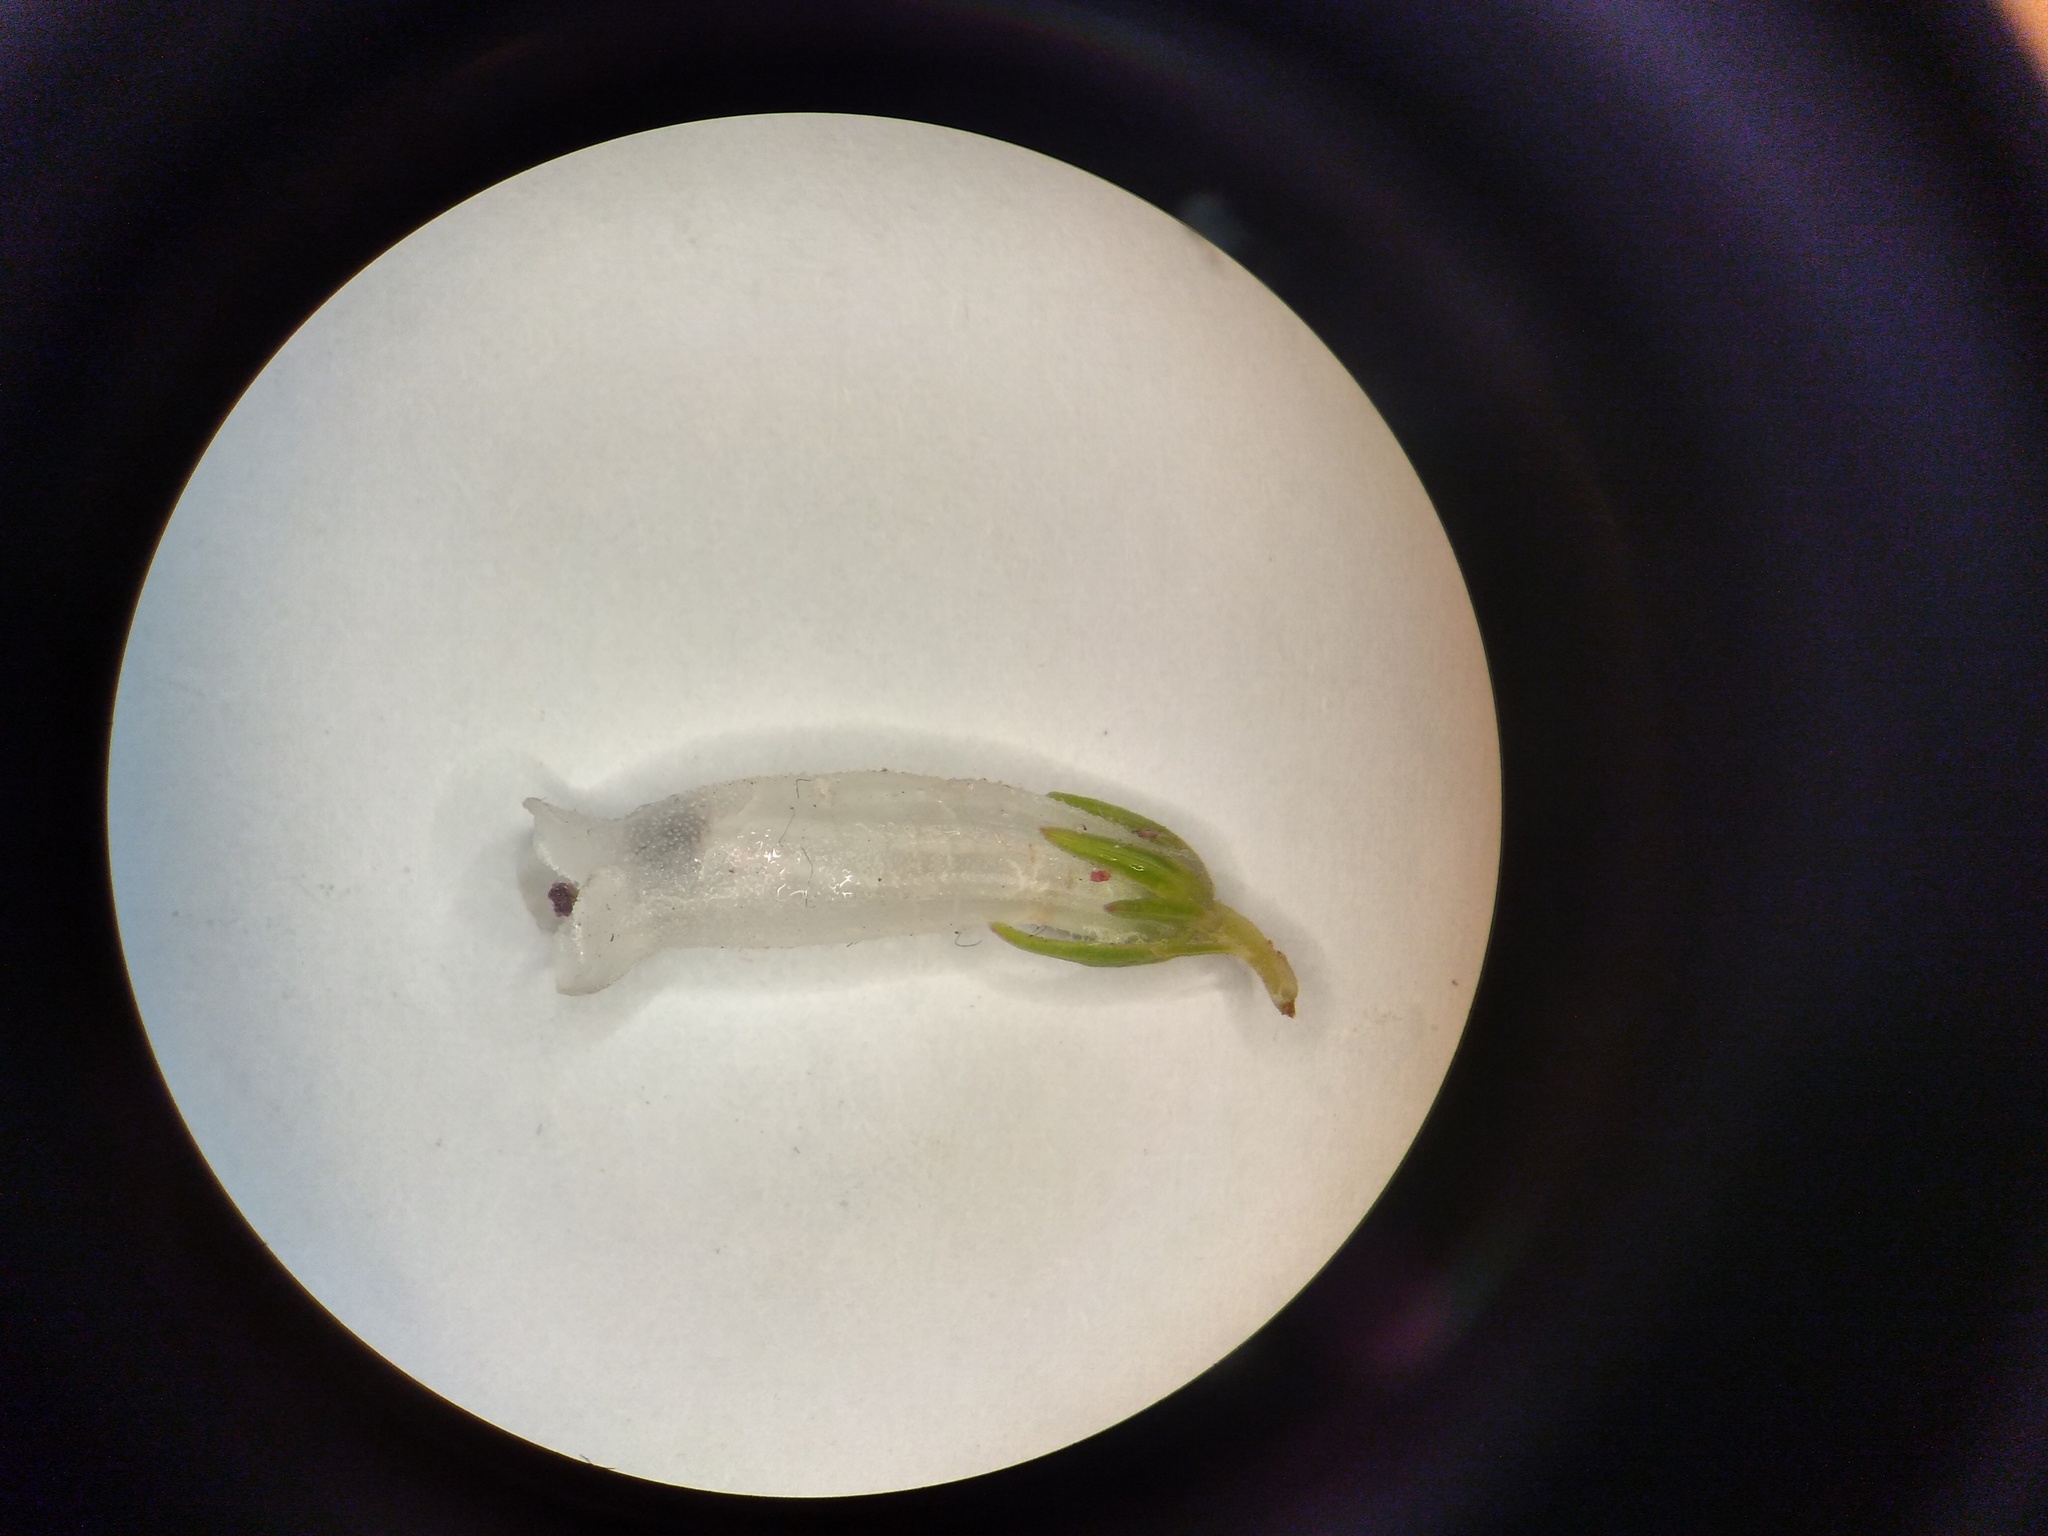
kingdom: Plantae
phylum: Tracheophyta
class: Magnoliopsida
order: Ericales
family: Ericaceae
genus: Erica
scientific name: Erica viscaria
